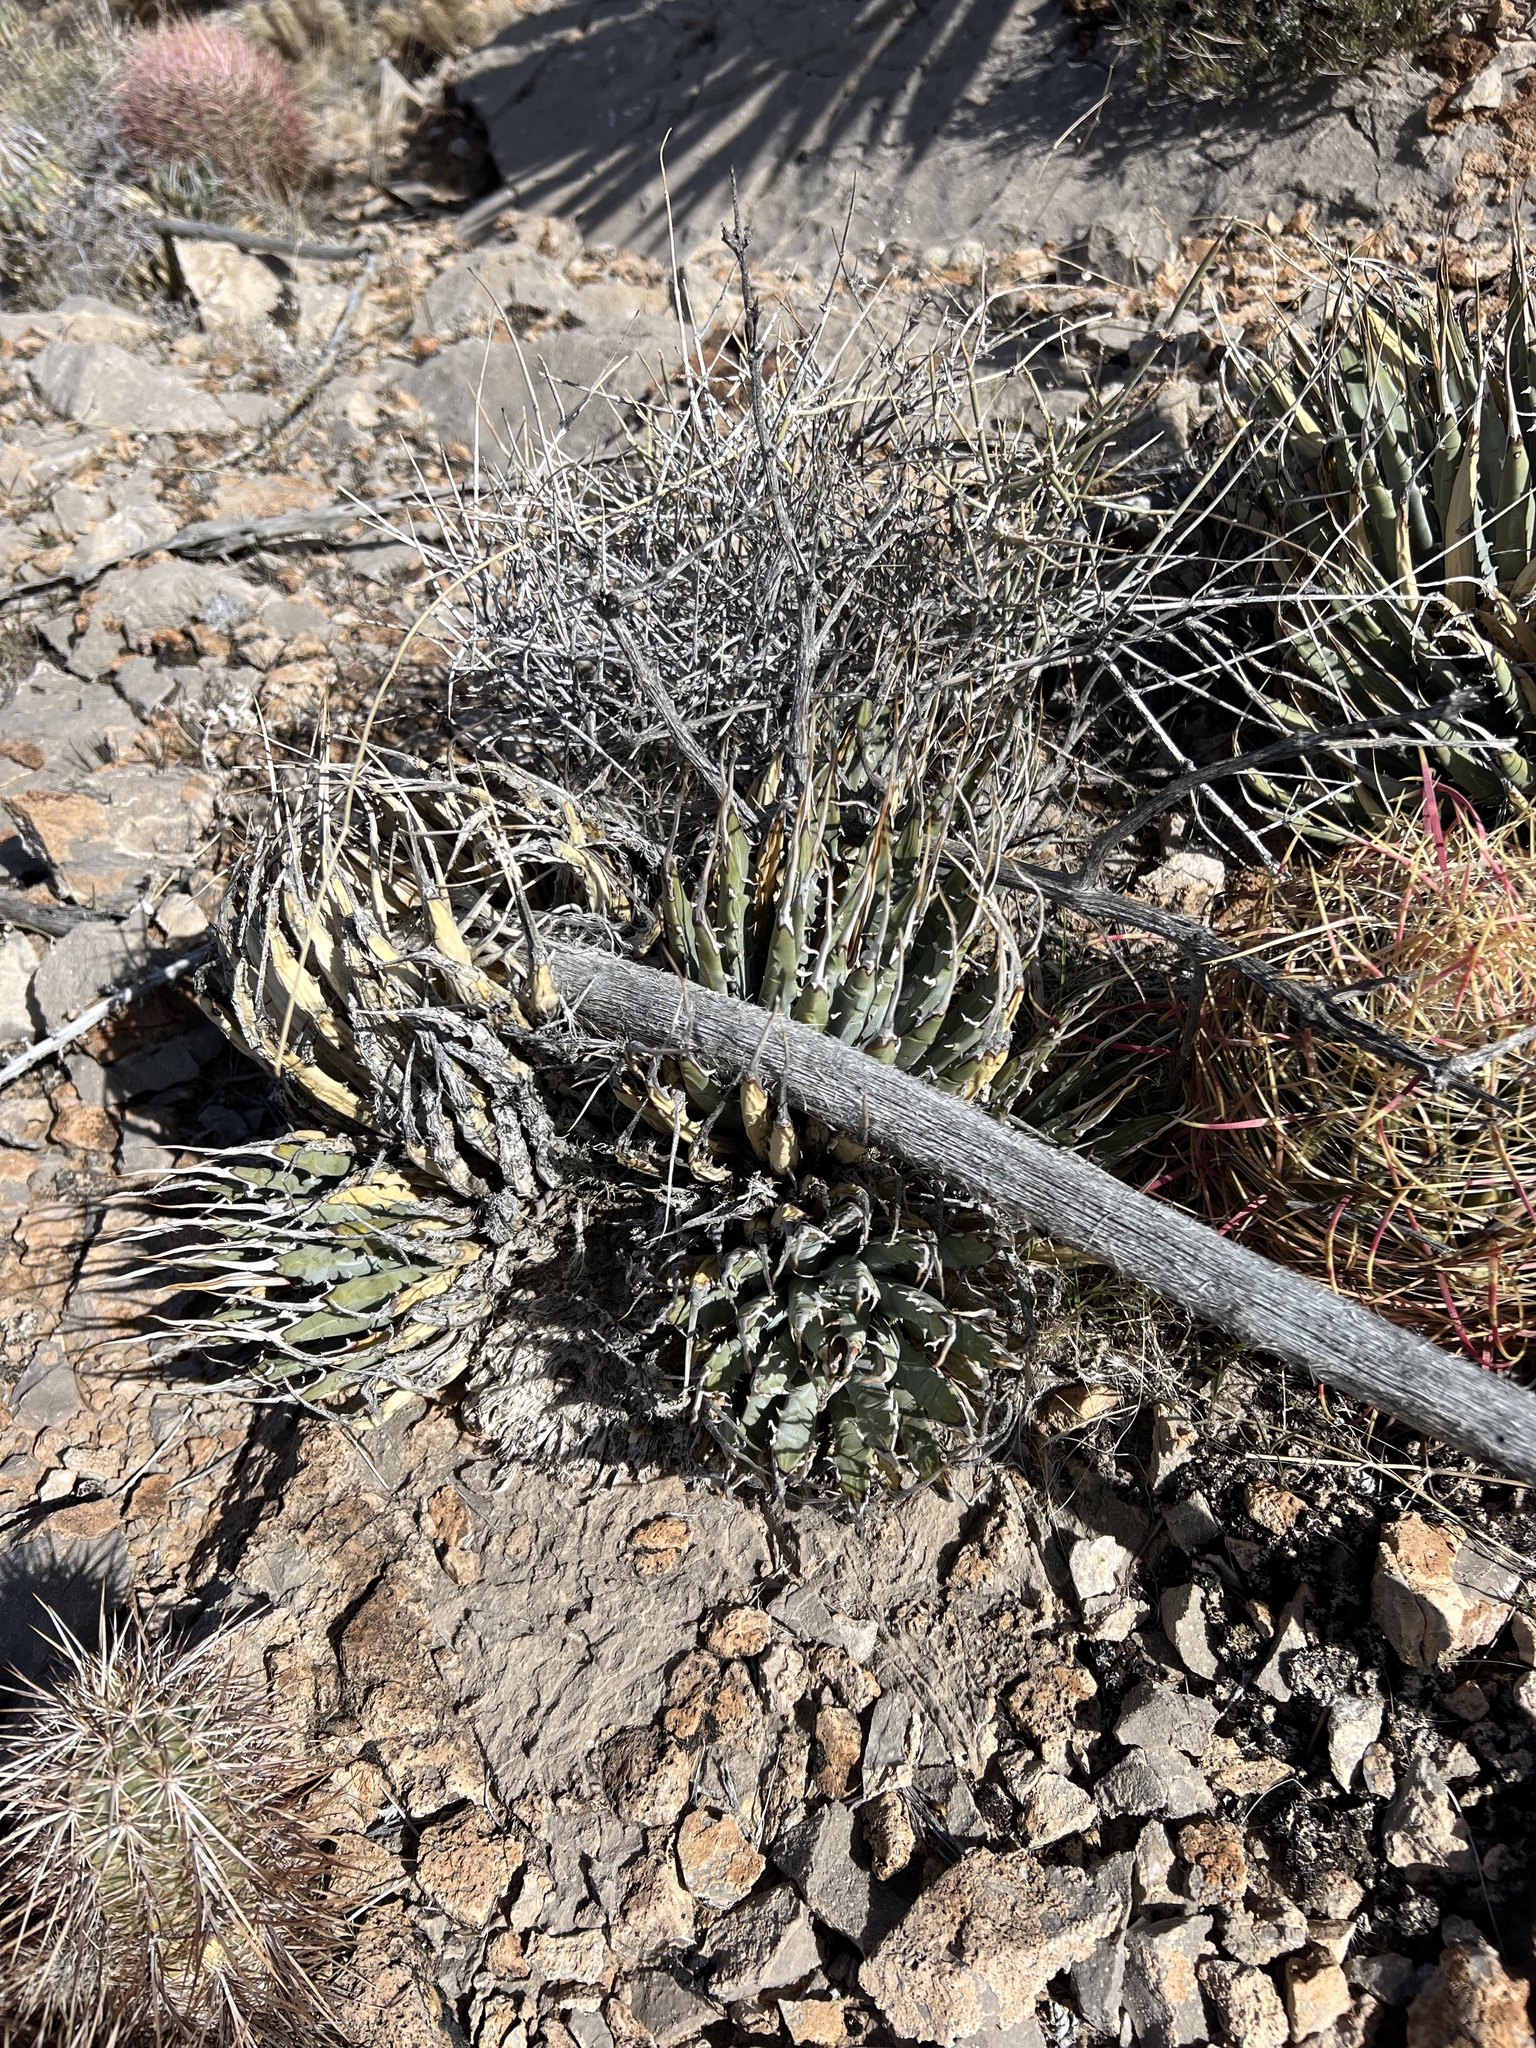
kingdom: Plantae
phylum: Tracheophyta
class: Liliopsida
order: Asparagales
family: Asparagaceae
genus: Agave
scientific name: Agave utahensis
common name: Utah agave
